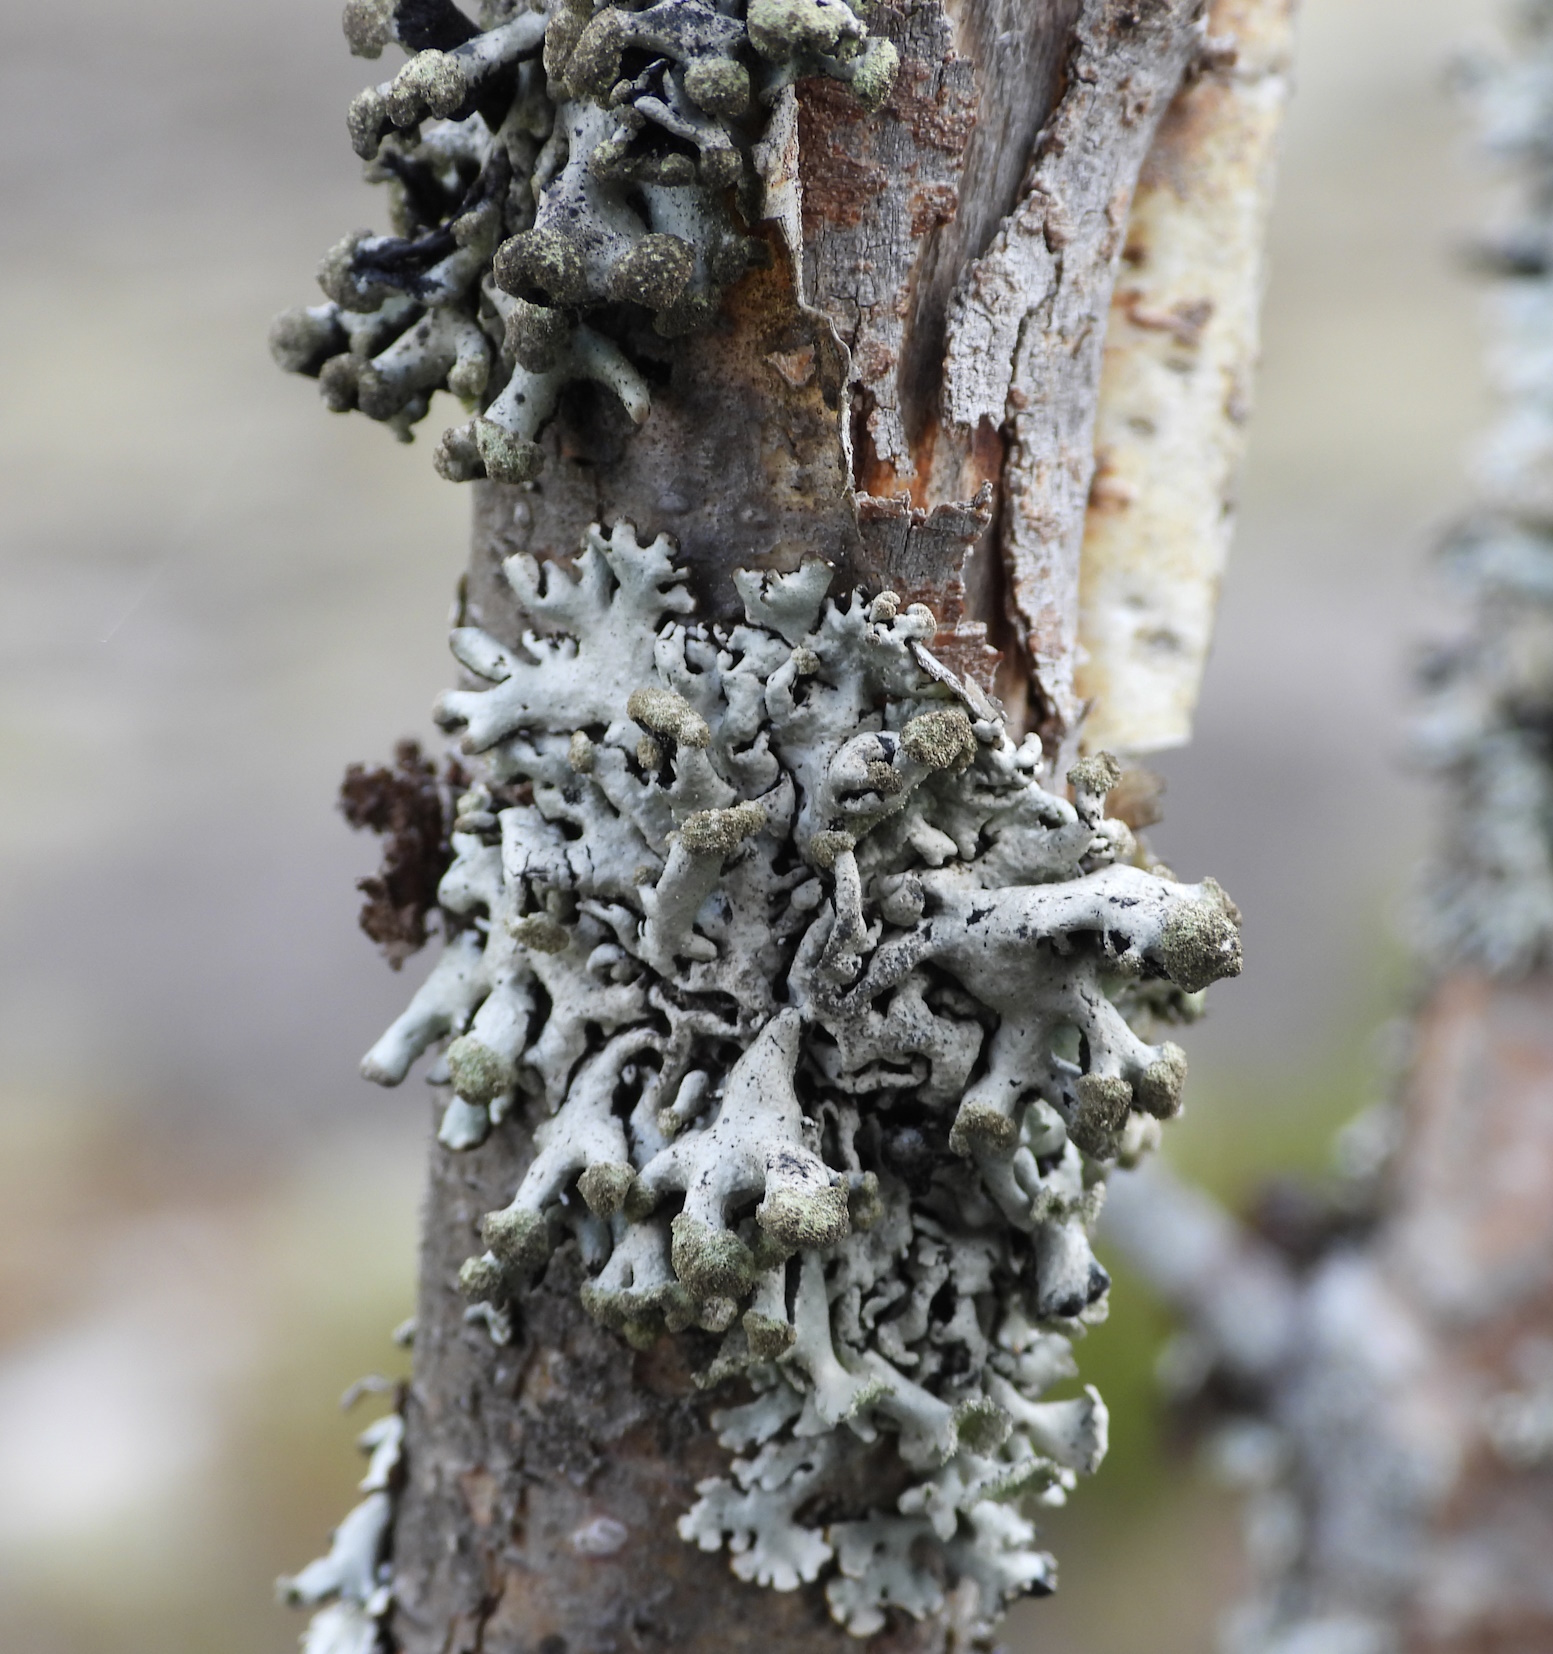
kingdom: Fungi
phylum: Ascomycota
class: Lecanoromycetes
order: Lecanorales
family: Parmeliaceae
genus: Hypogymnia
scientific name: Hypogymnia tubulosa
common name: Powder-headed tube lichen
